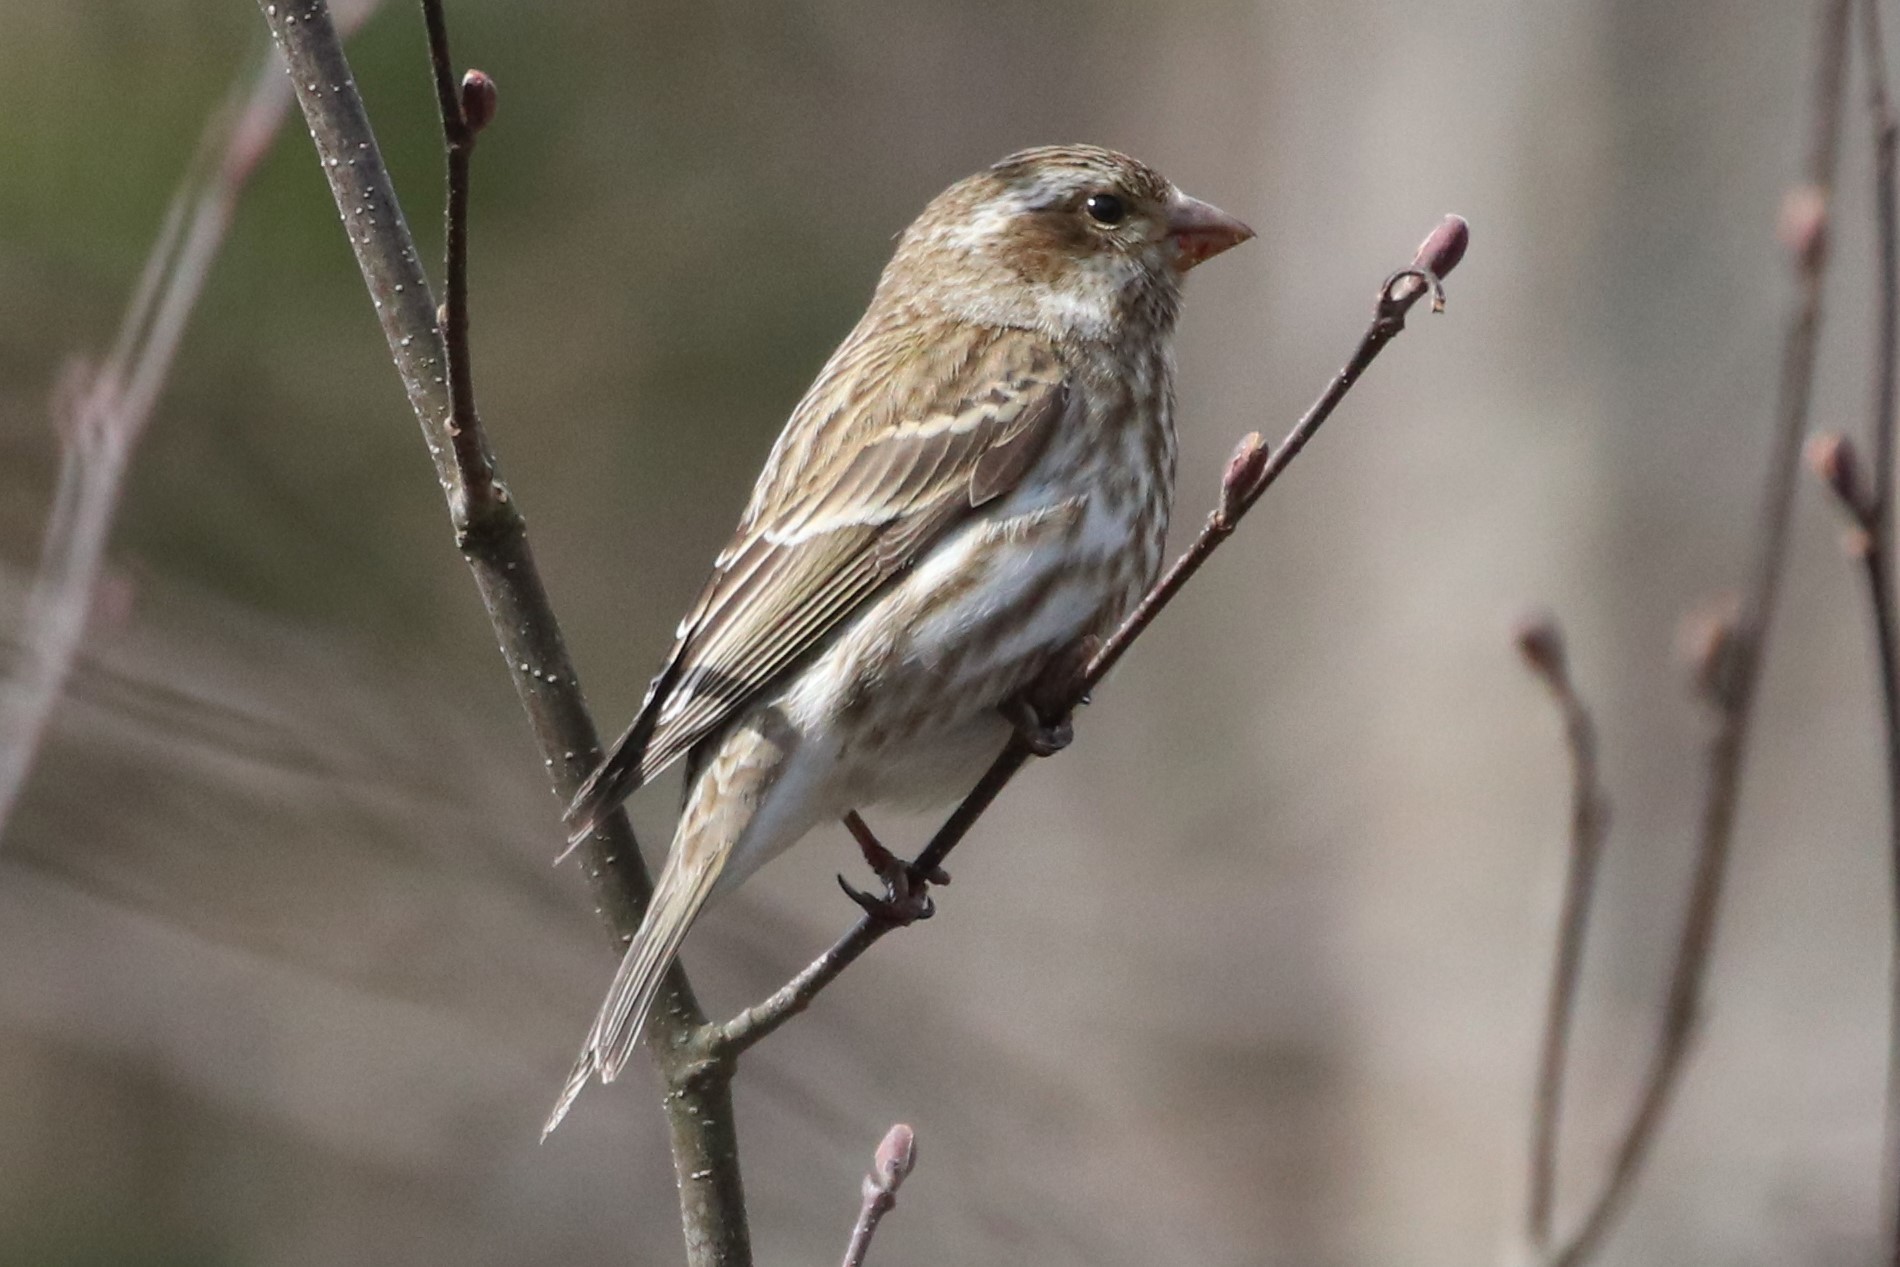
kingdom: Animalia
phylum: Chordata
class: Aves
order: Passeriformes
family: Fringillidae
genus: Haemorhous
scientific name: Haemorhous purpureus
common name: Purple finch
